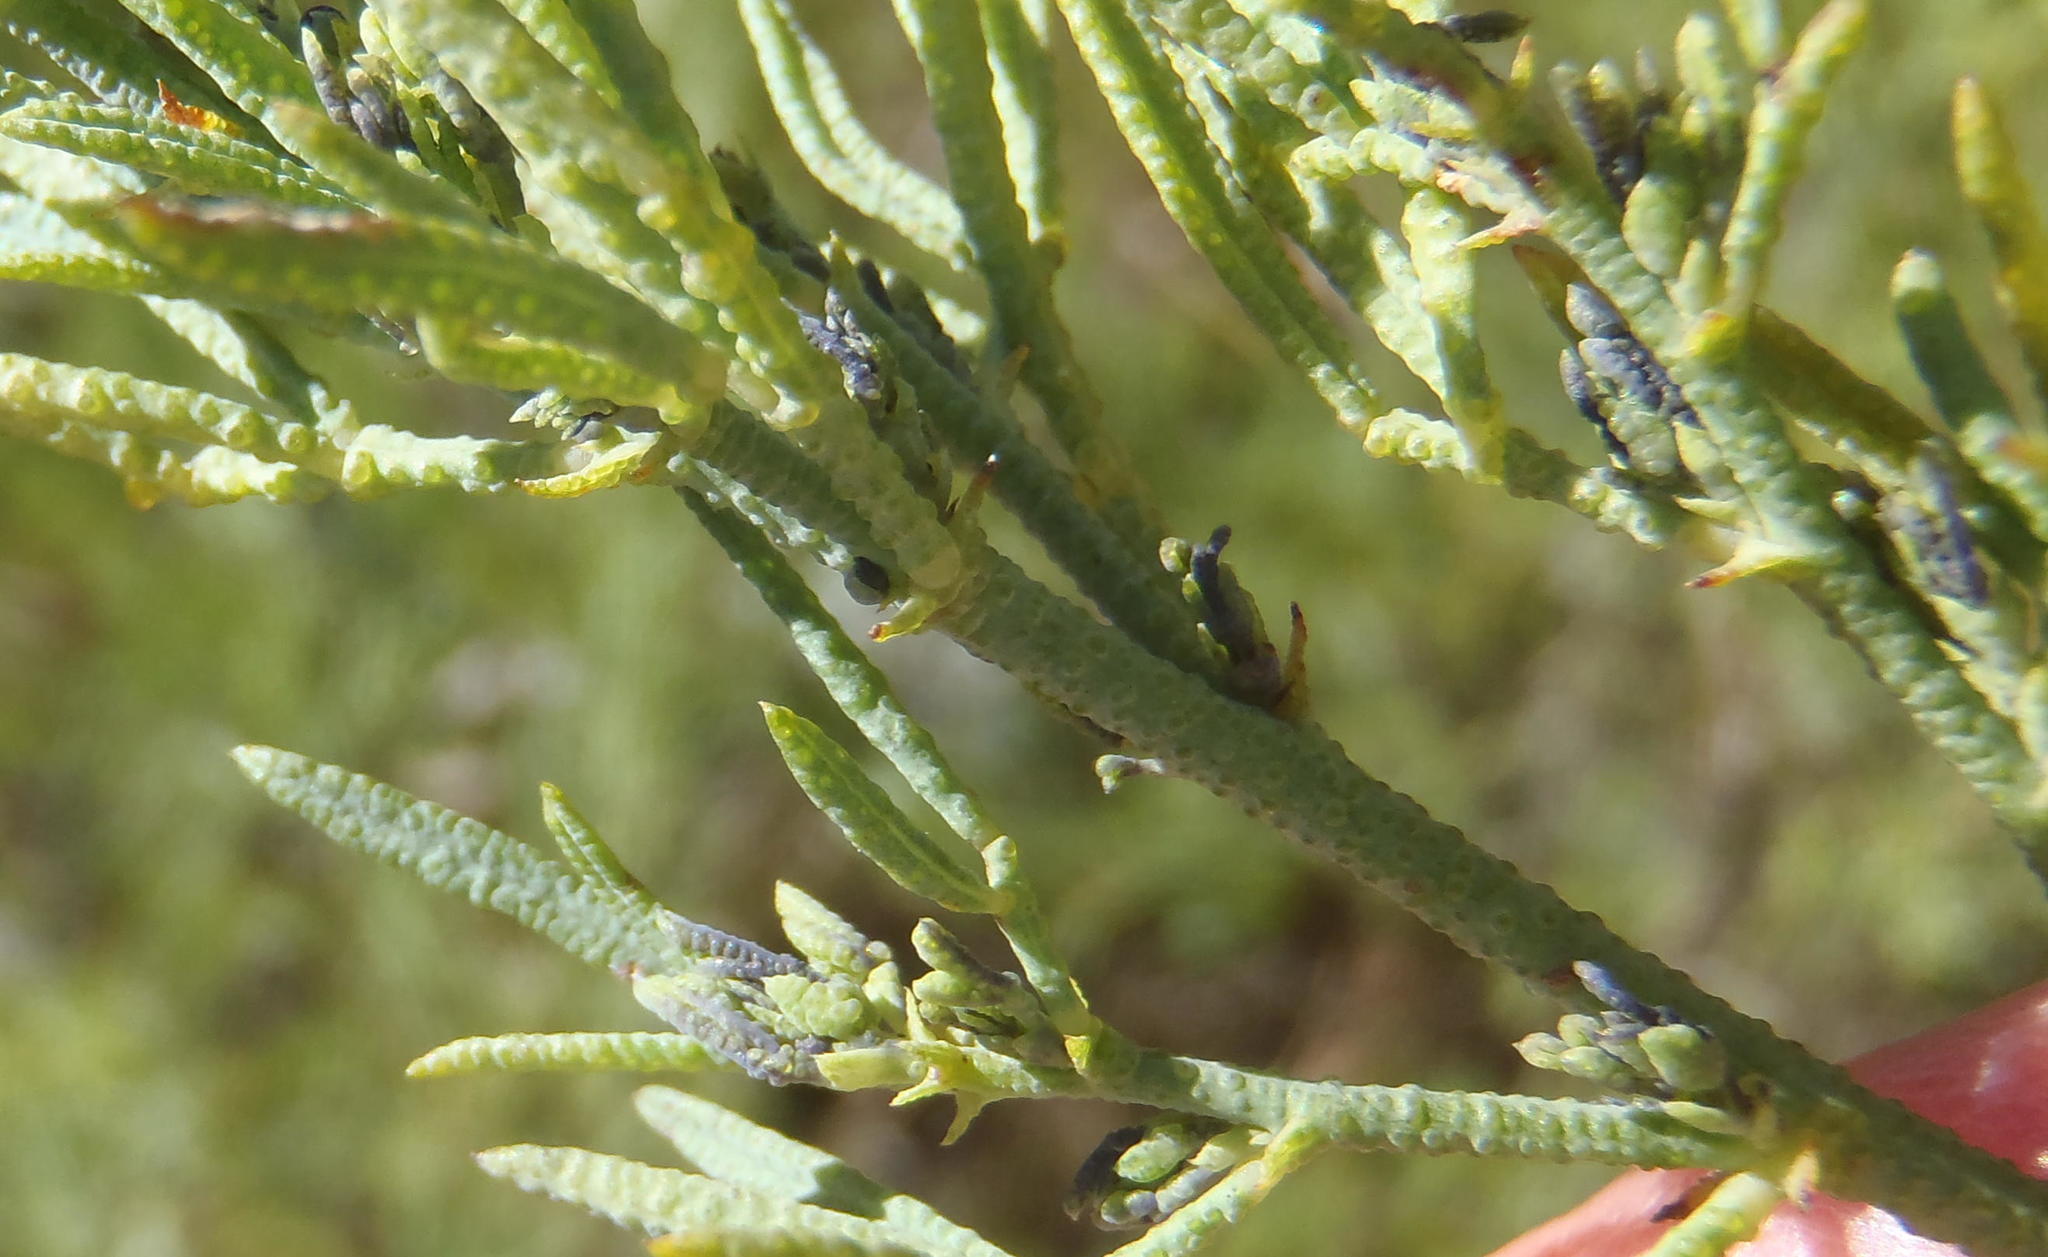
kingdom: Plantae
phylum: Tracheophyta
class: Magnoliopsida
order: Fabales
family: Fabaceae
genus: Psoralea
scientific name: Psoralea axillaris
